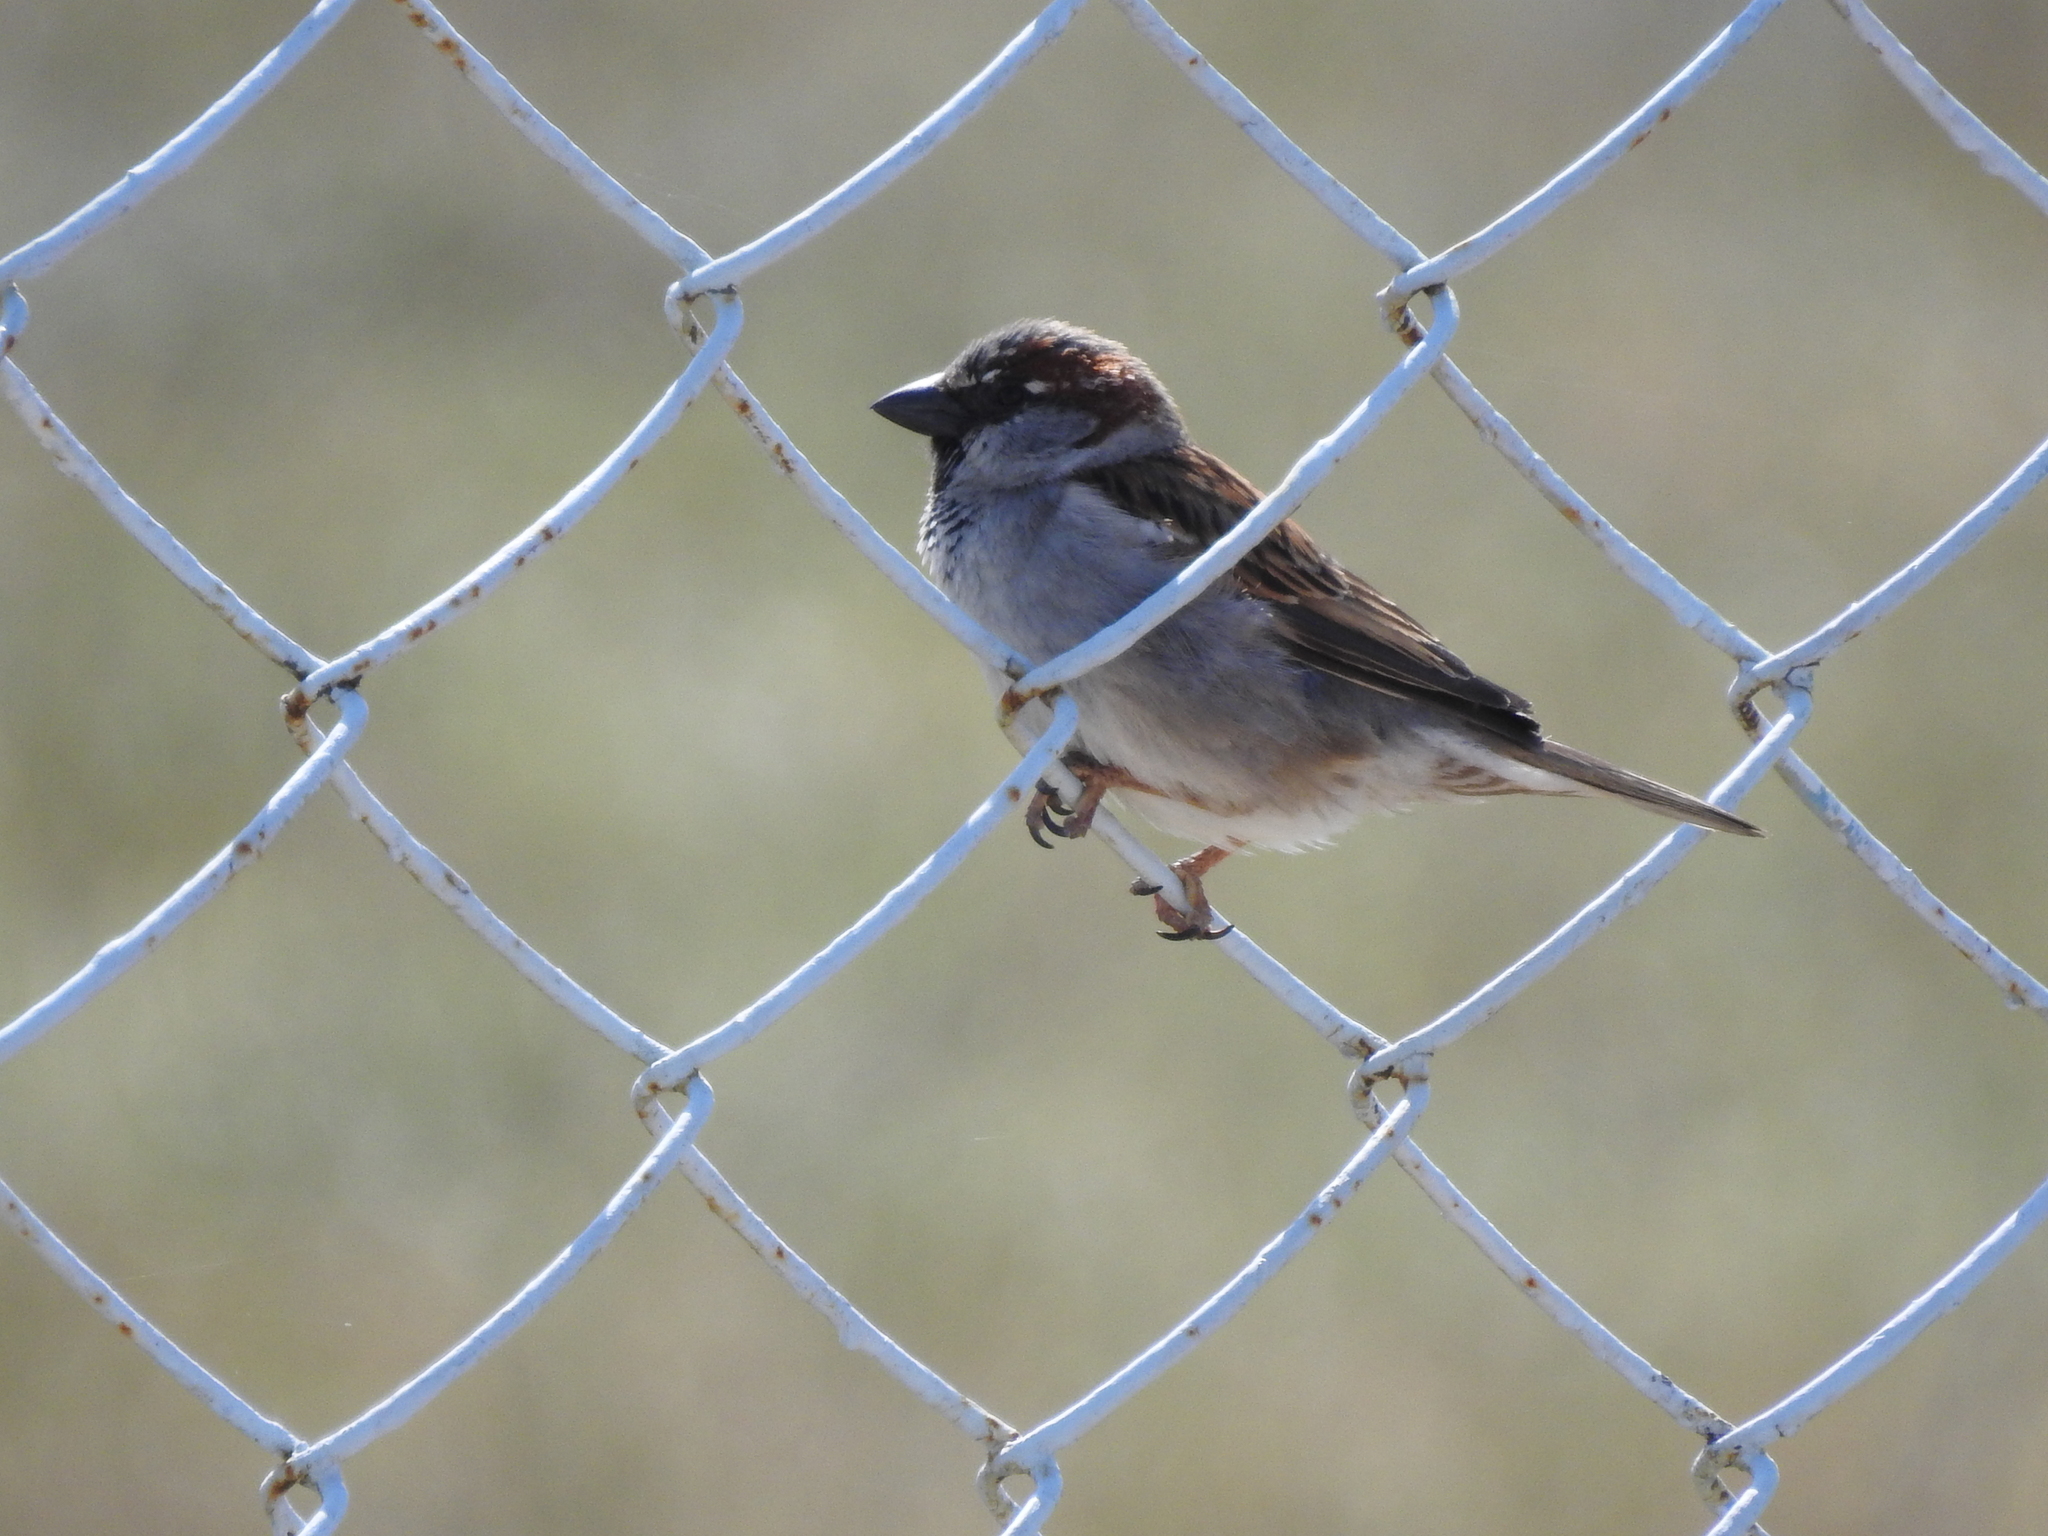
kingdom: Animalia
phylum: Chordata
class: Aves
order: Passeriformes
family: Passeridae
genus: Passer
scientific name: Passer domesticus
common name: House sparrow
